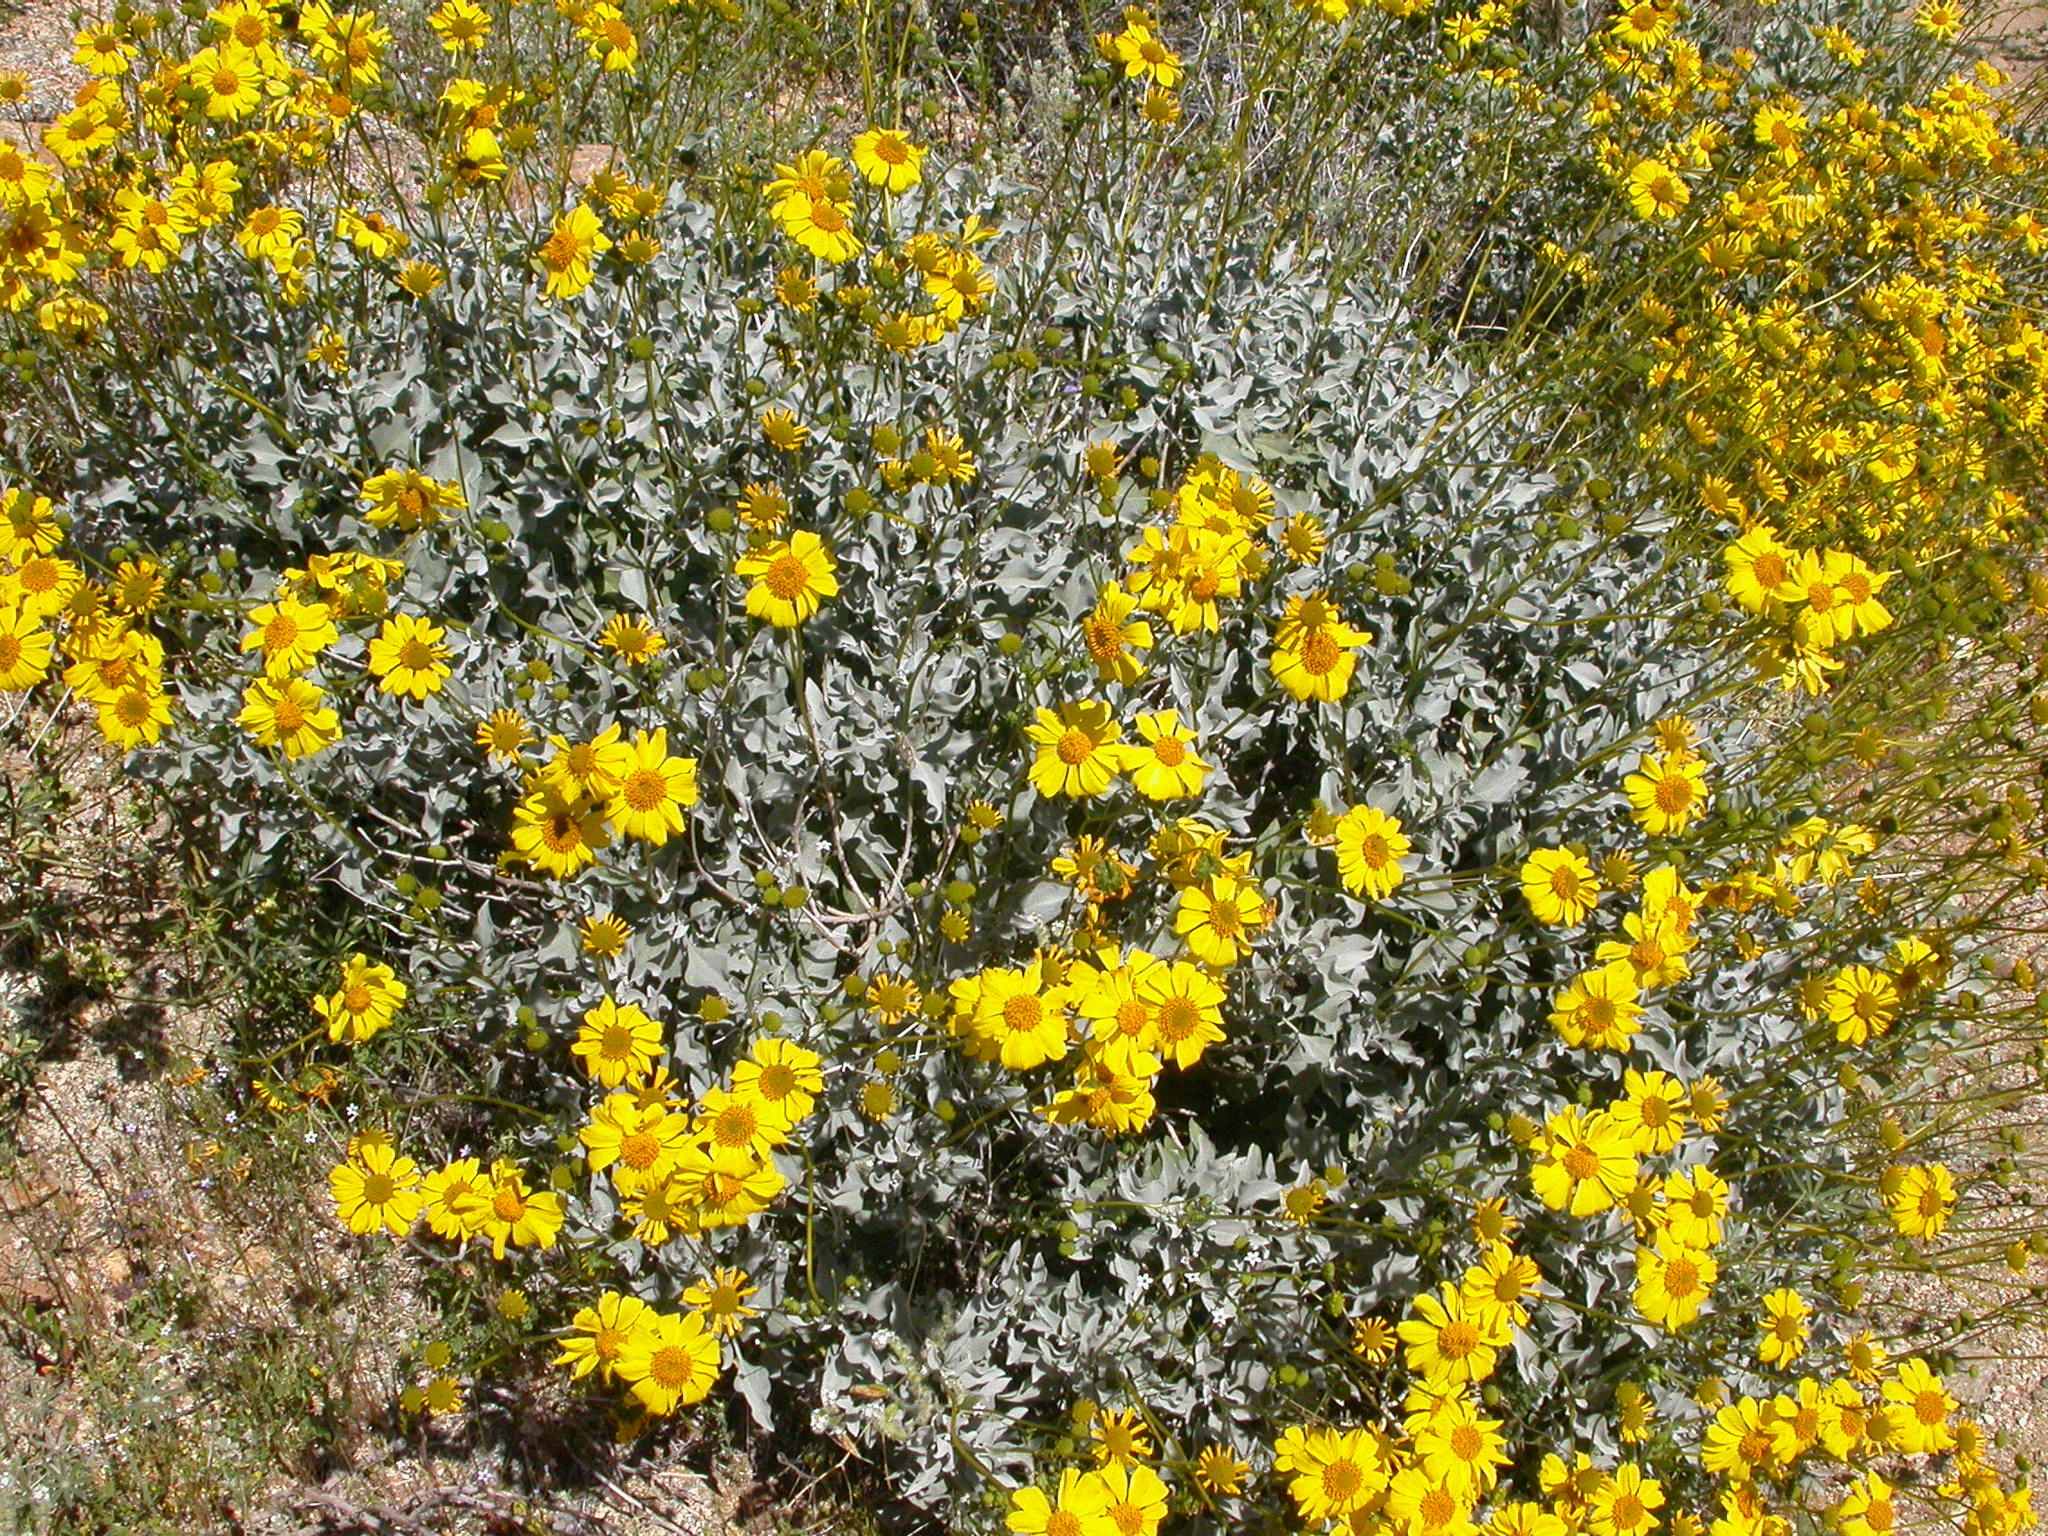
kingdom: Plantae
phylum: Tracheophyta
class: Magnoliopsida
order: Asterales
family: Asteraceae
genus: Encelia
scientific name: Encelia farinosa
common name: Brittlebush
